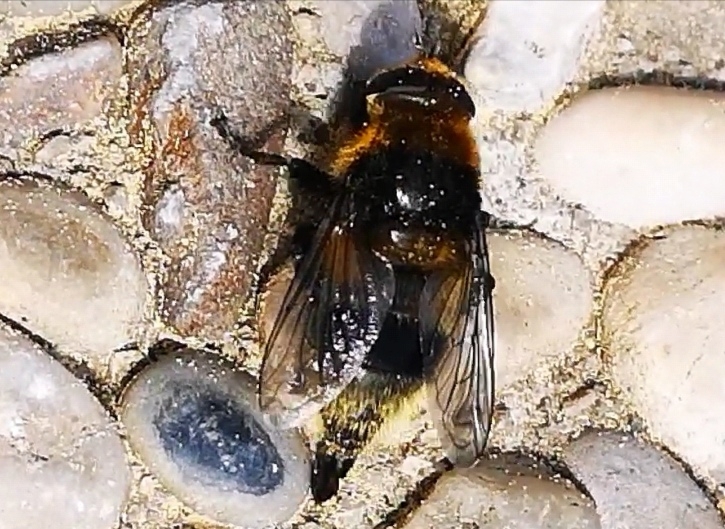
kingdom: Animalia
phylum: Arthropoda
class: Insecta
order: Diptera
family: Syrphidae
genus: Merodon
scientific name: Merodon equestris
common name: Greater bulb-fly
